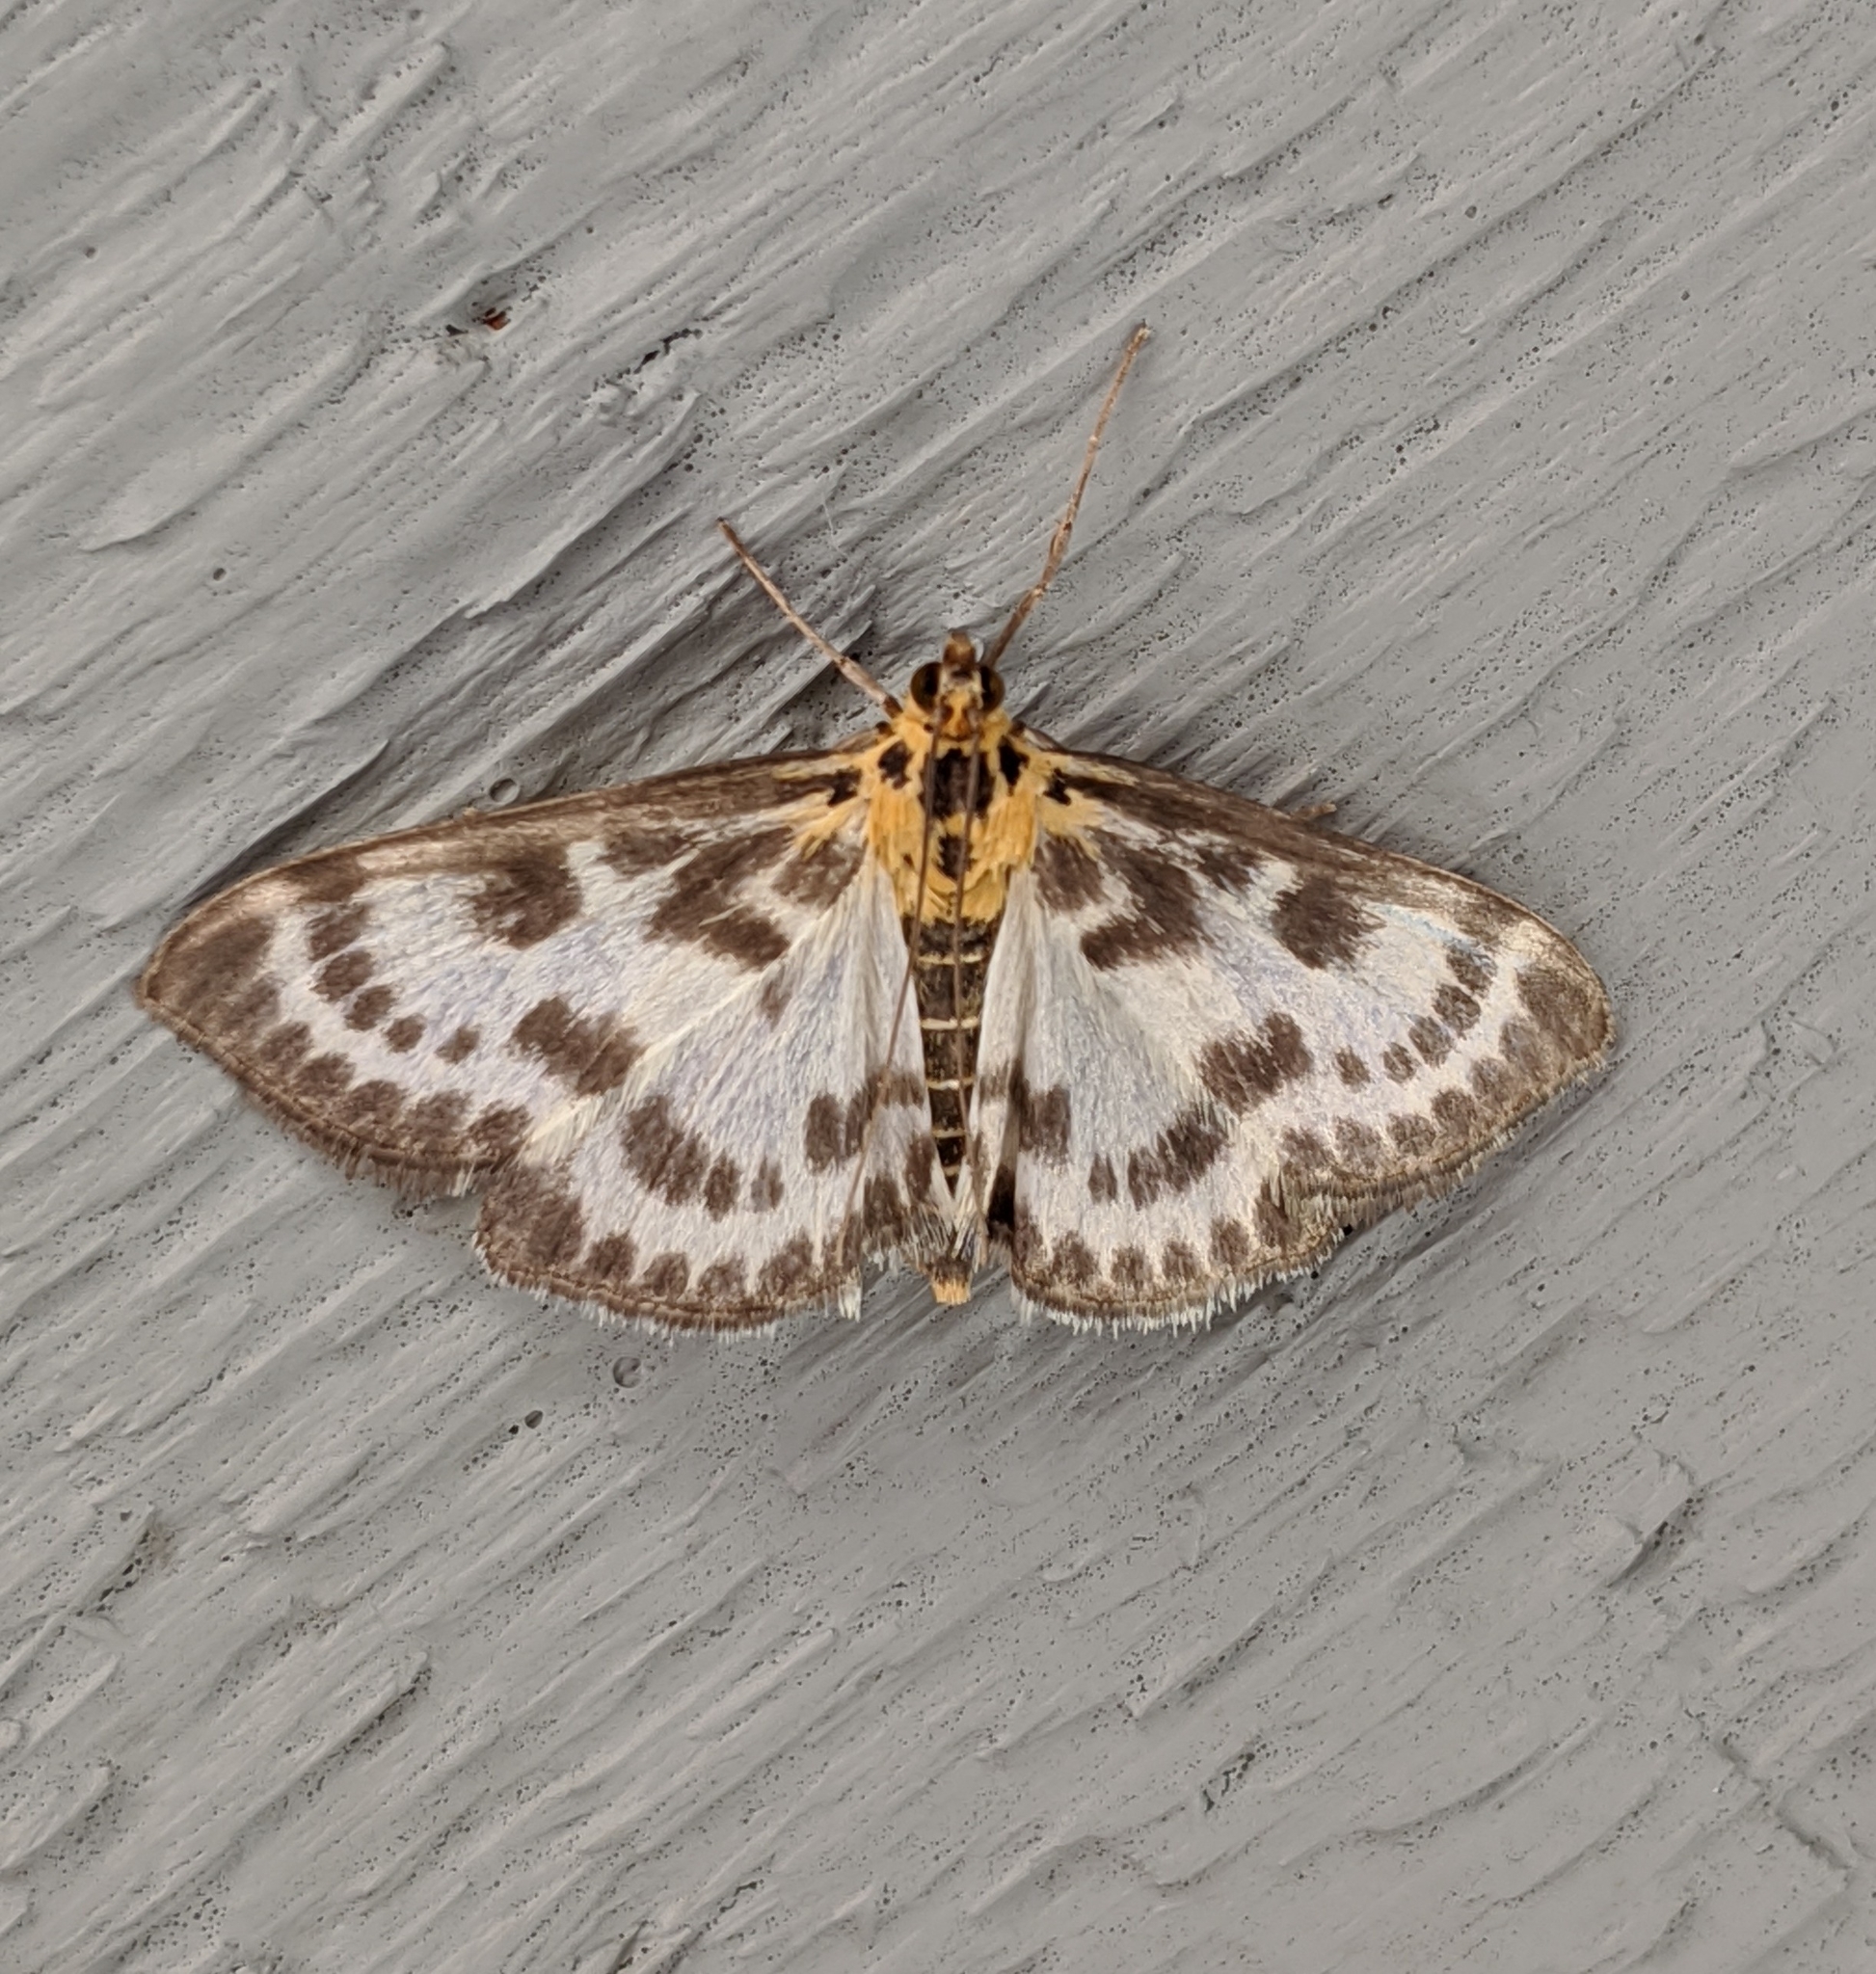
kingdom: Animalia
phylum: Arthropoda
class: Insecta
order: Lepidoptera
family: Crambidae
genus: Anania
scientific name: Anania hortulata
